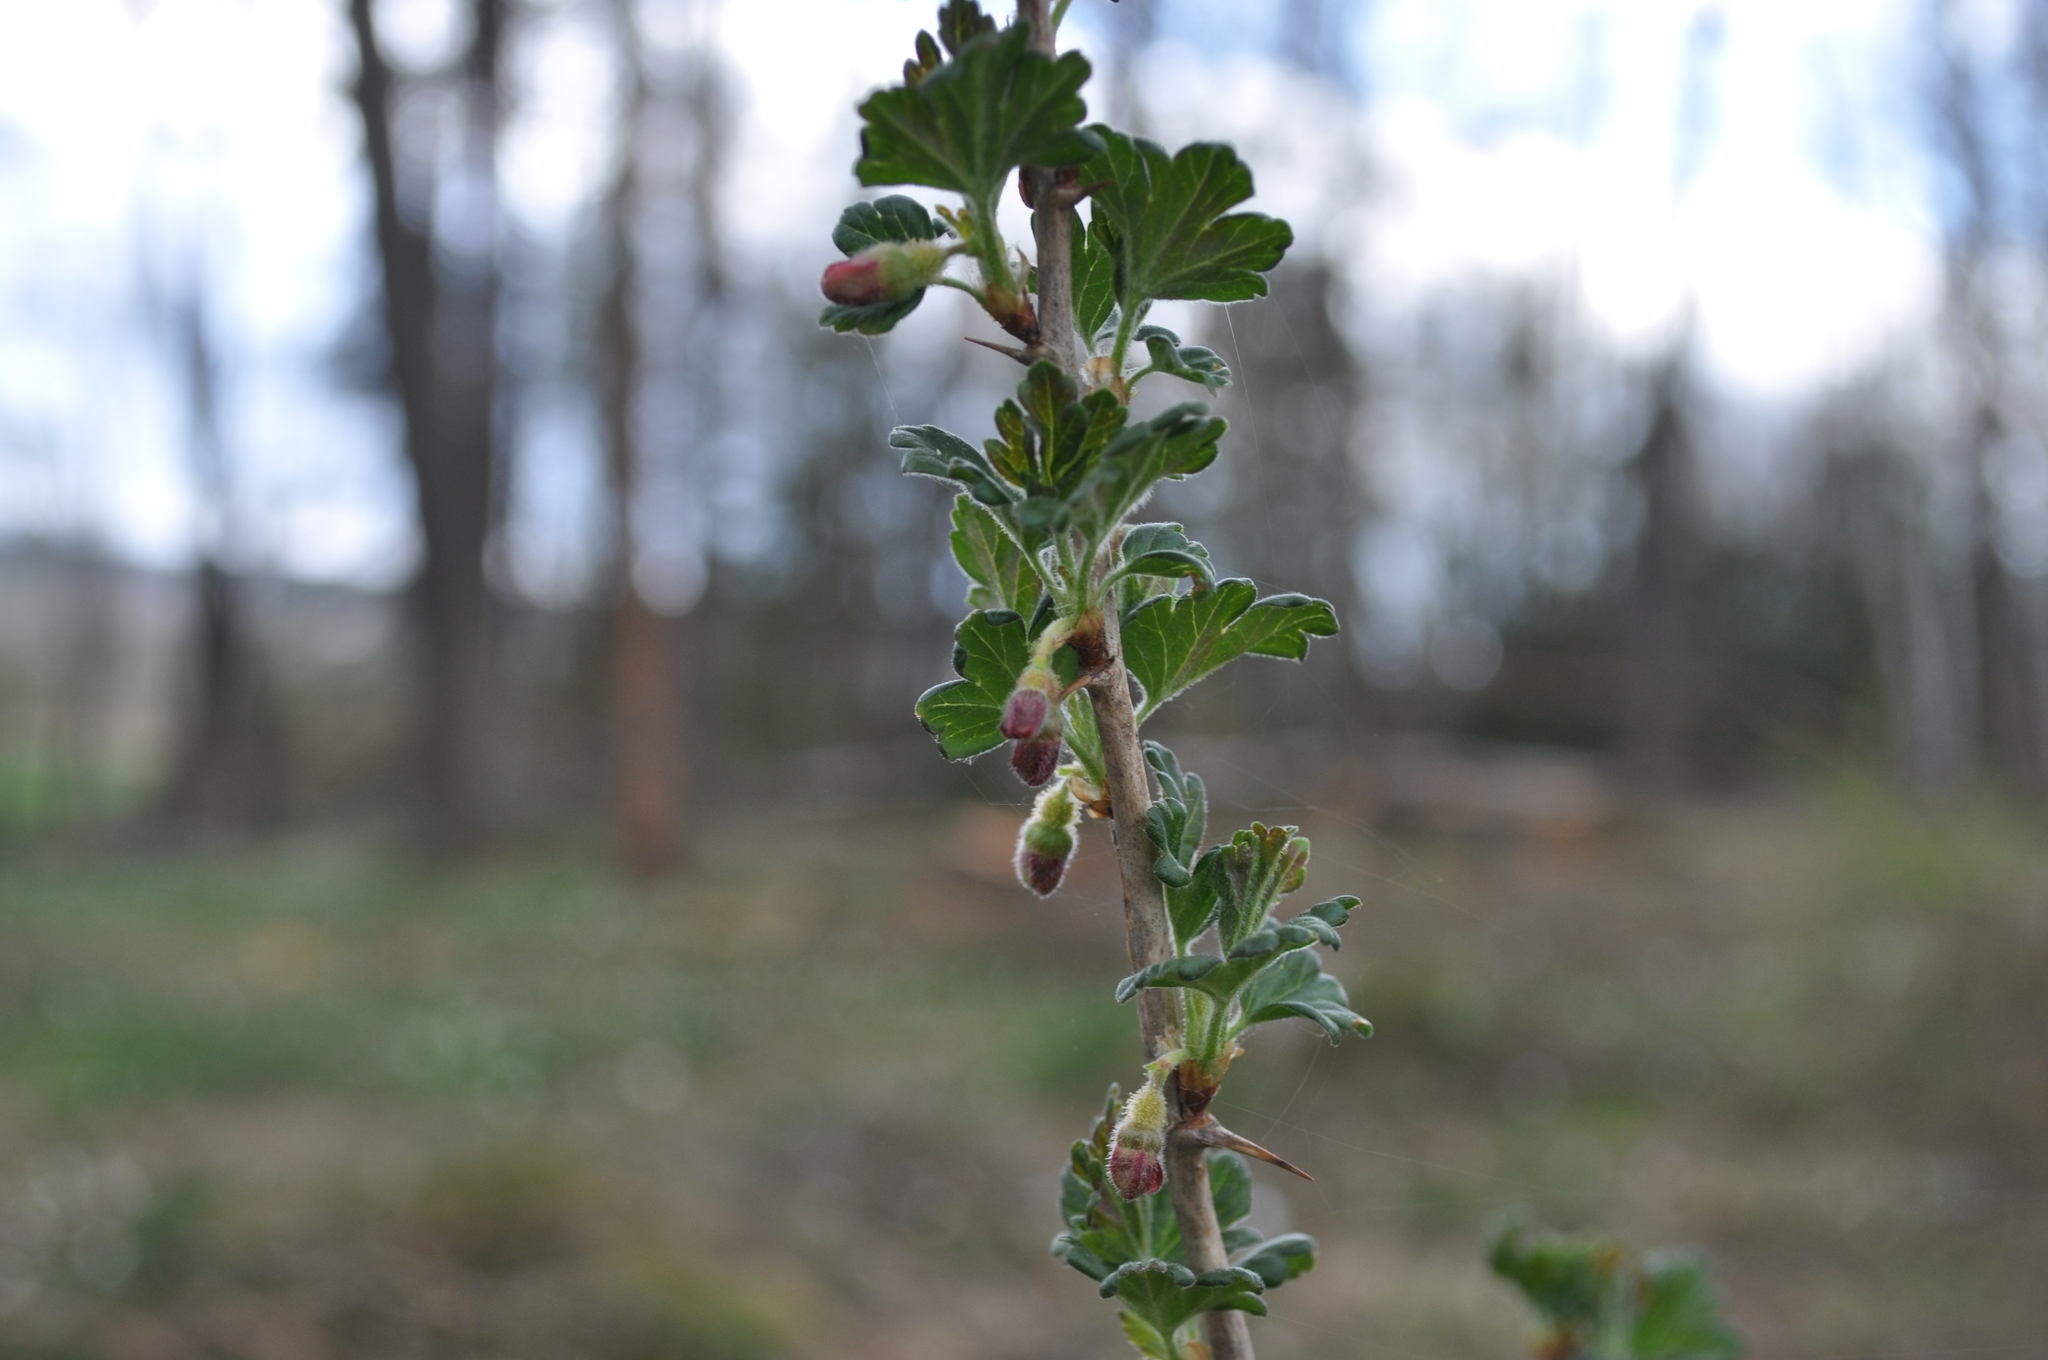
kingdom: Plantae
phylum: Tracheophyta
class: Magnoliopsida
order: Saxifragales
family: Grossulariaceae
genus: Ribes
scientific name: Ribes uva-crispa
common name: Gooseberry
